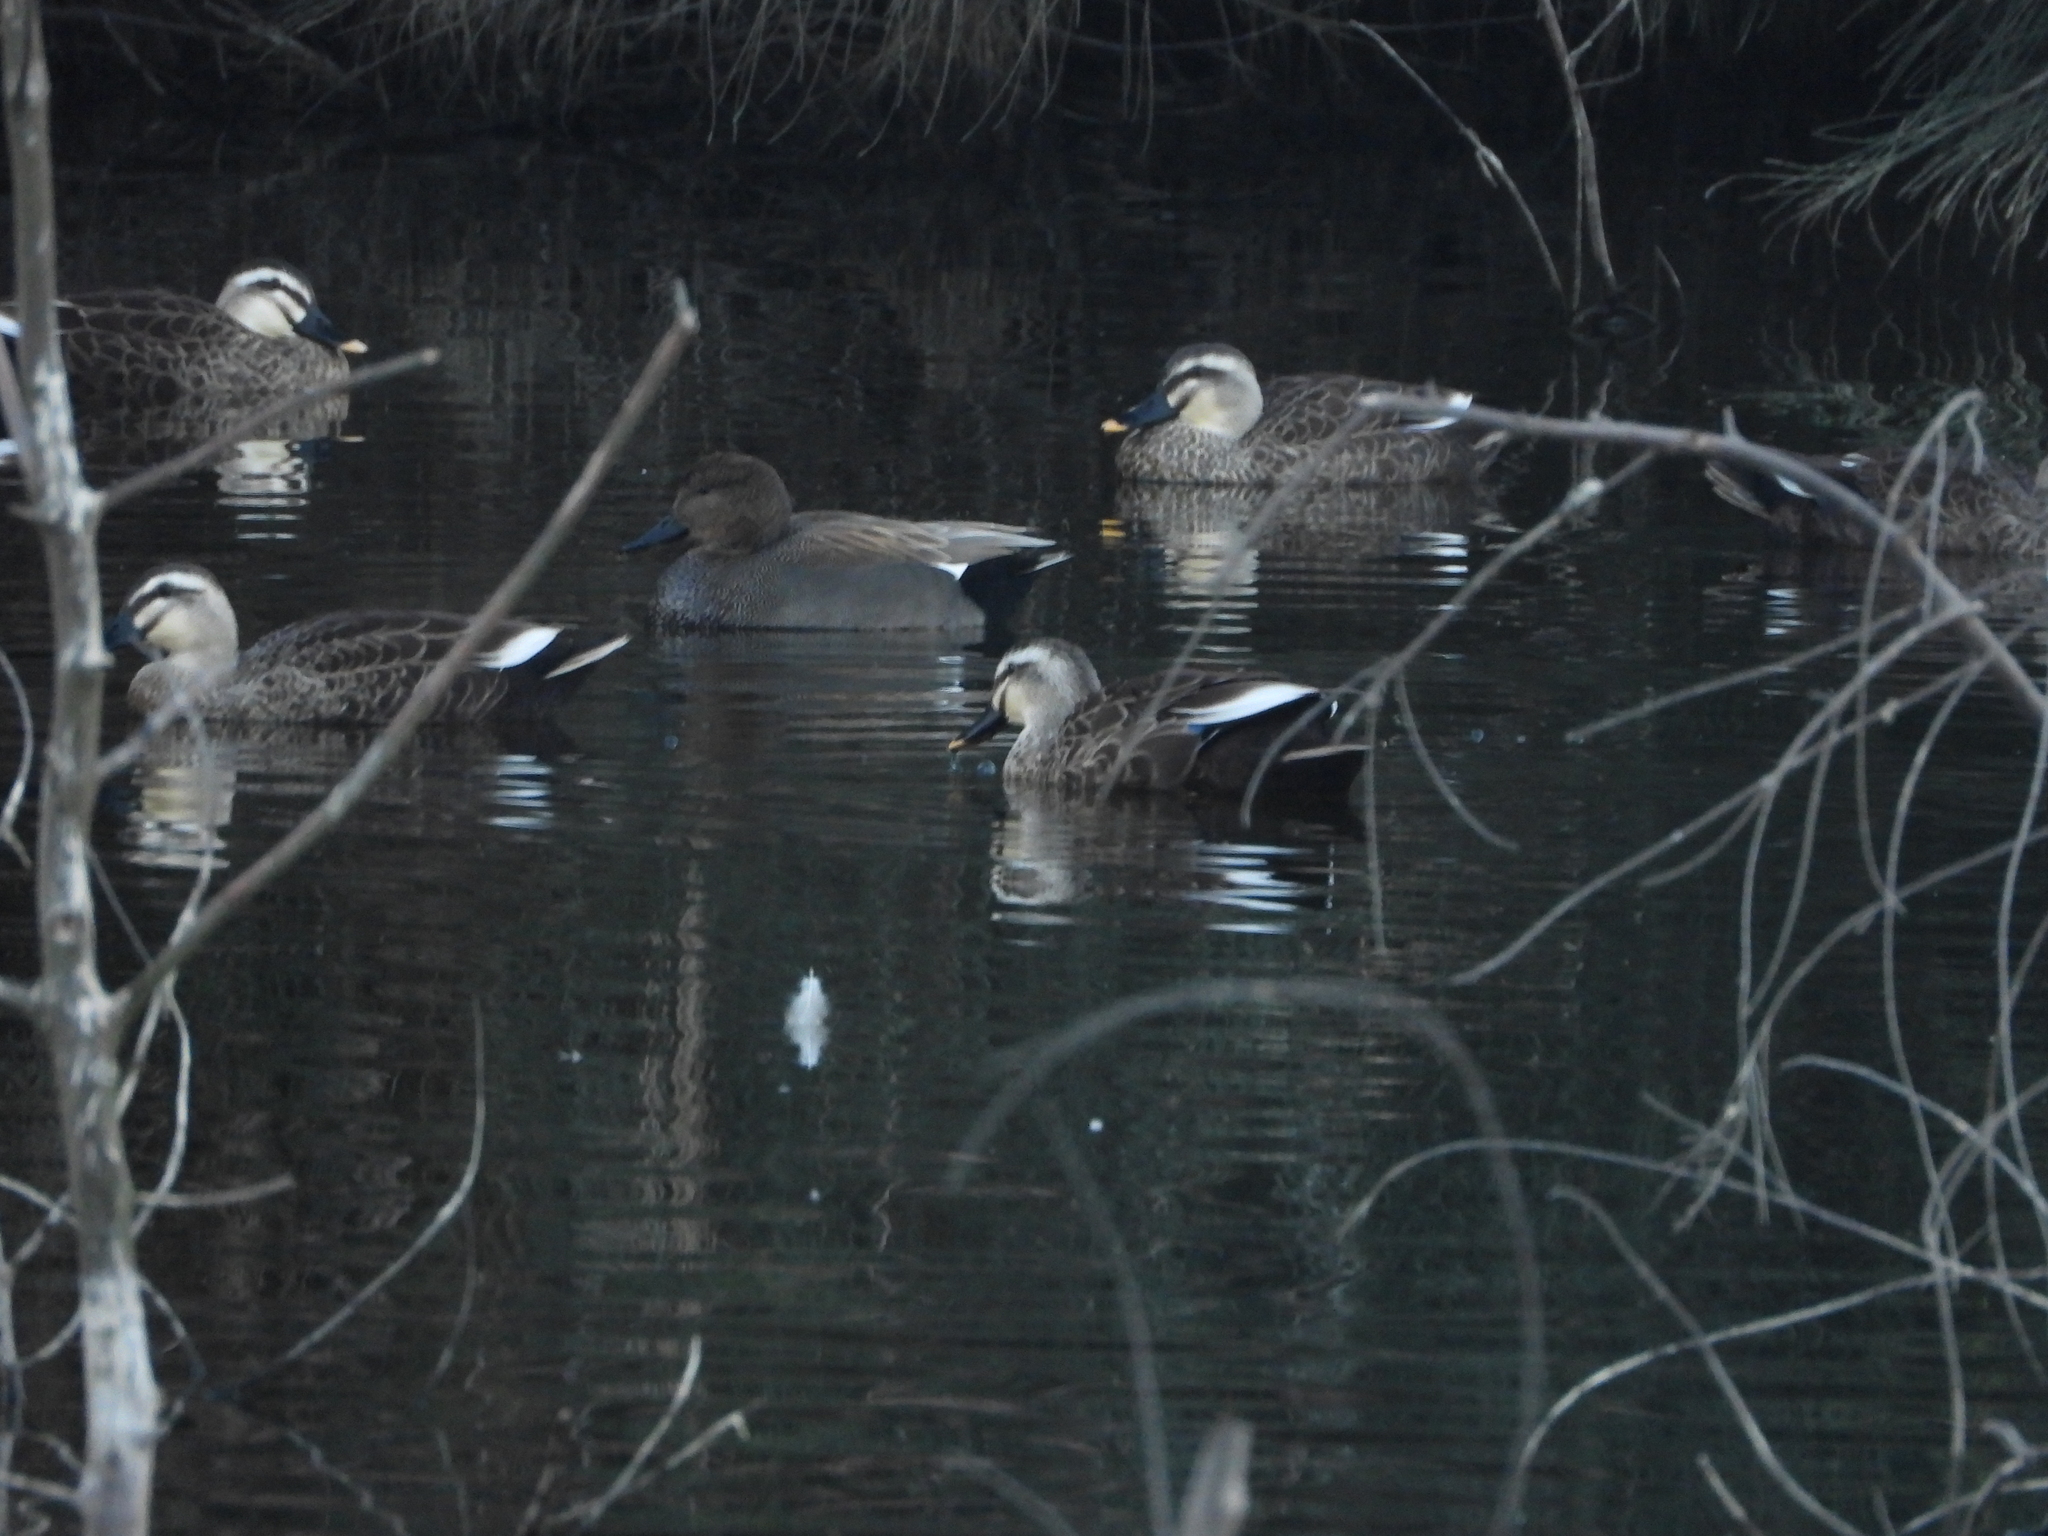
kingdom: Animalia
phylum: Chordata
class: Aves
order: Anseriformes
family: Anatidae
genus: Anas
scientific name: Anas zonorhyncha
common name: Eastern spot-billed duck
